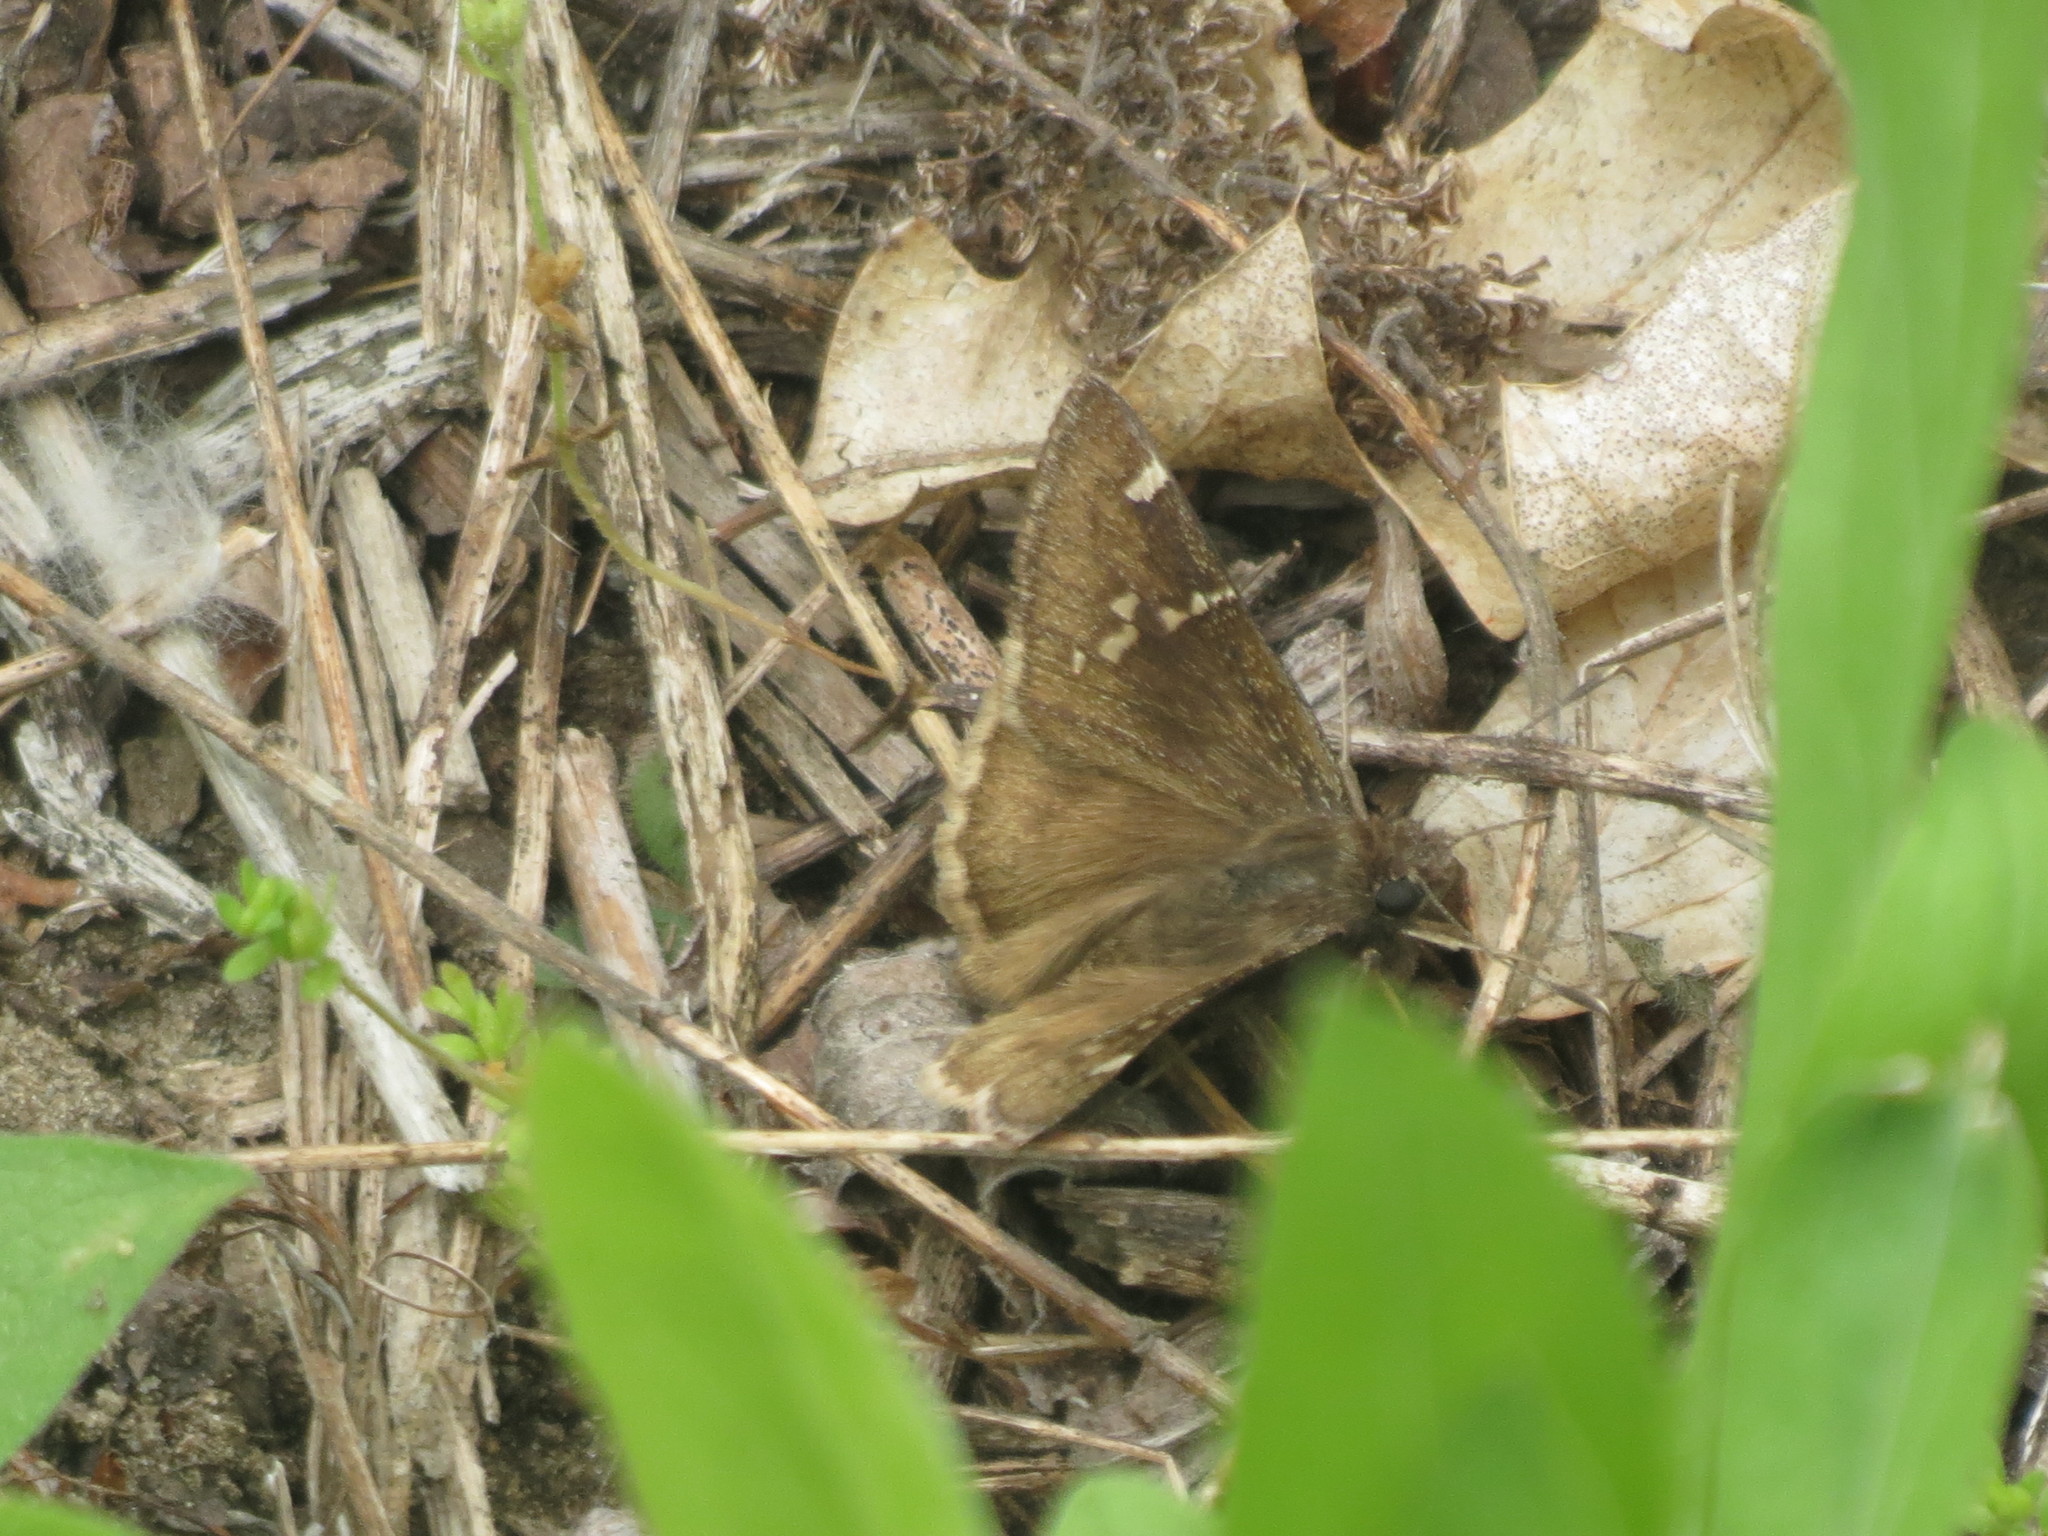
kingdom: Animalia
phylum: Arthropoda
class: Insecta
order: Lepidoptera
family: Hesperiidae
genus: Thorybes
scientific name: Thorybes daunus
